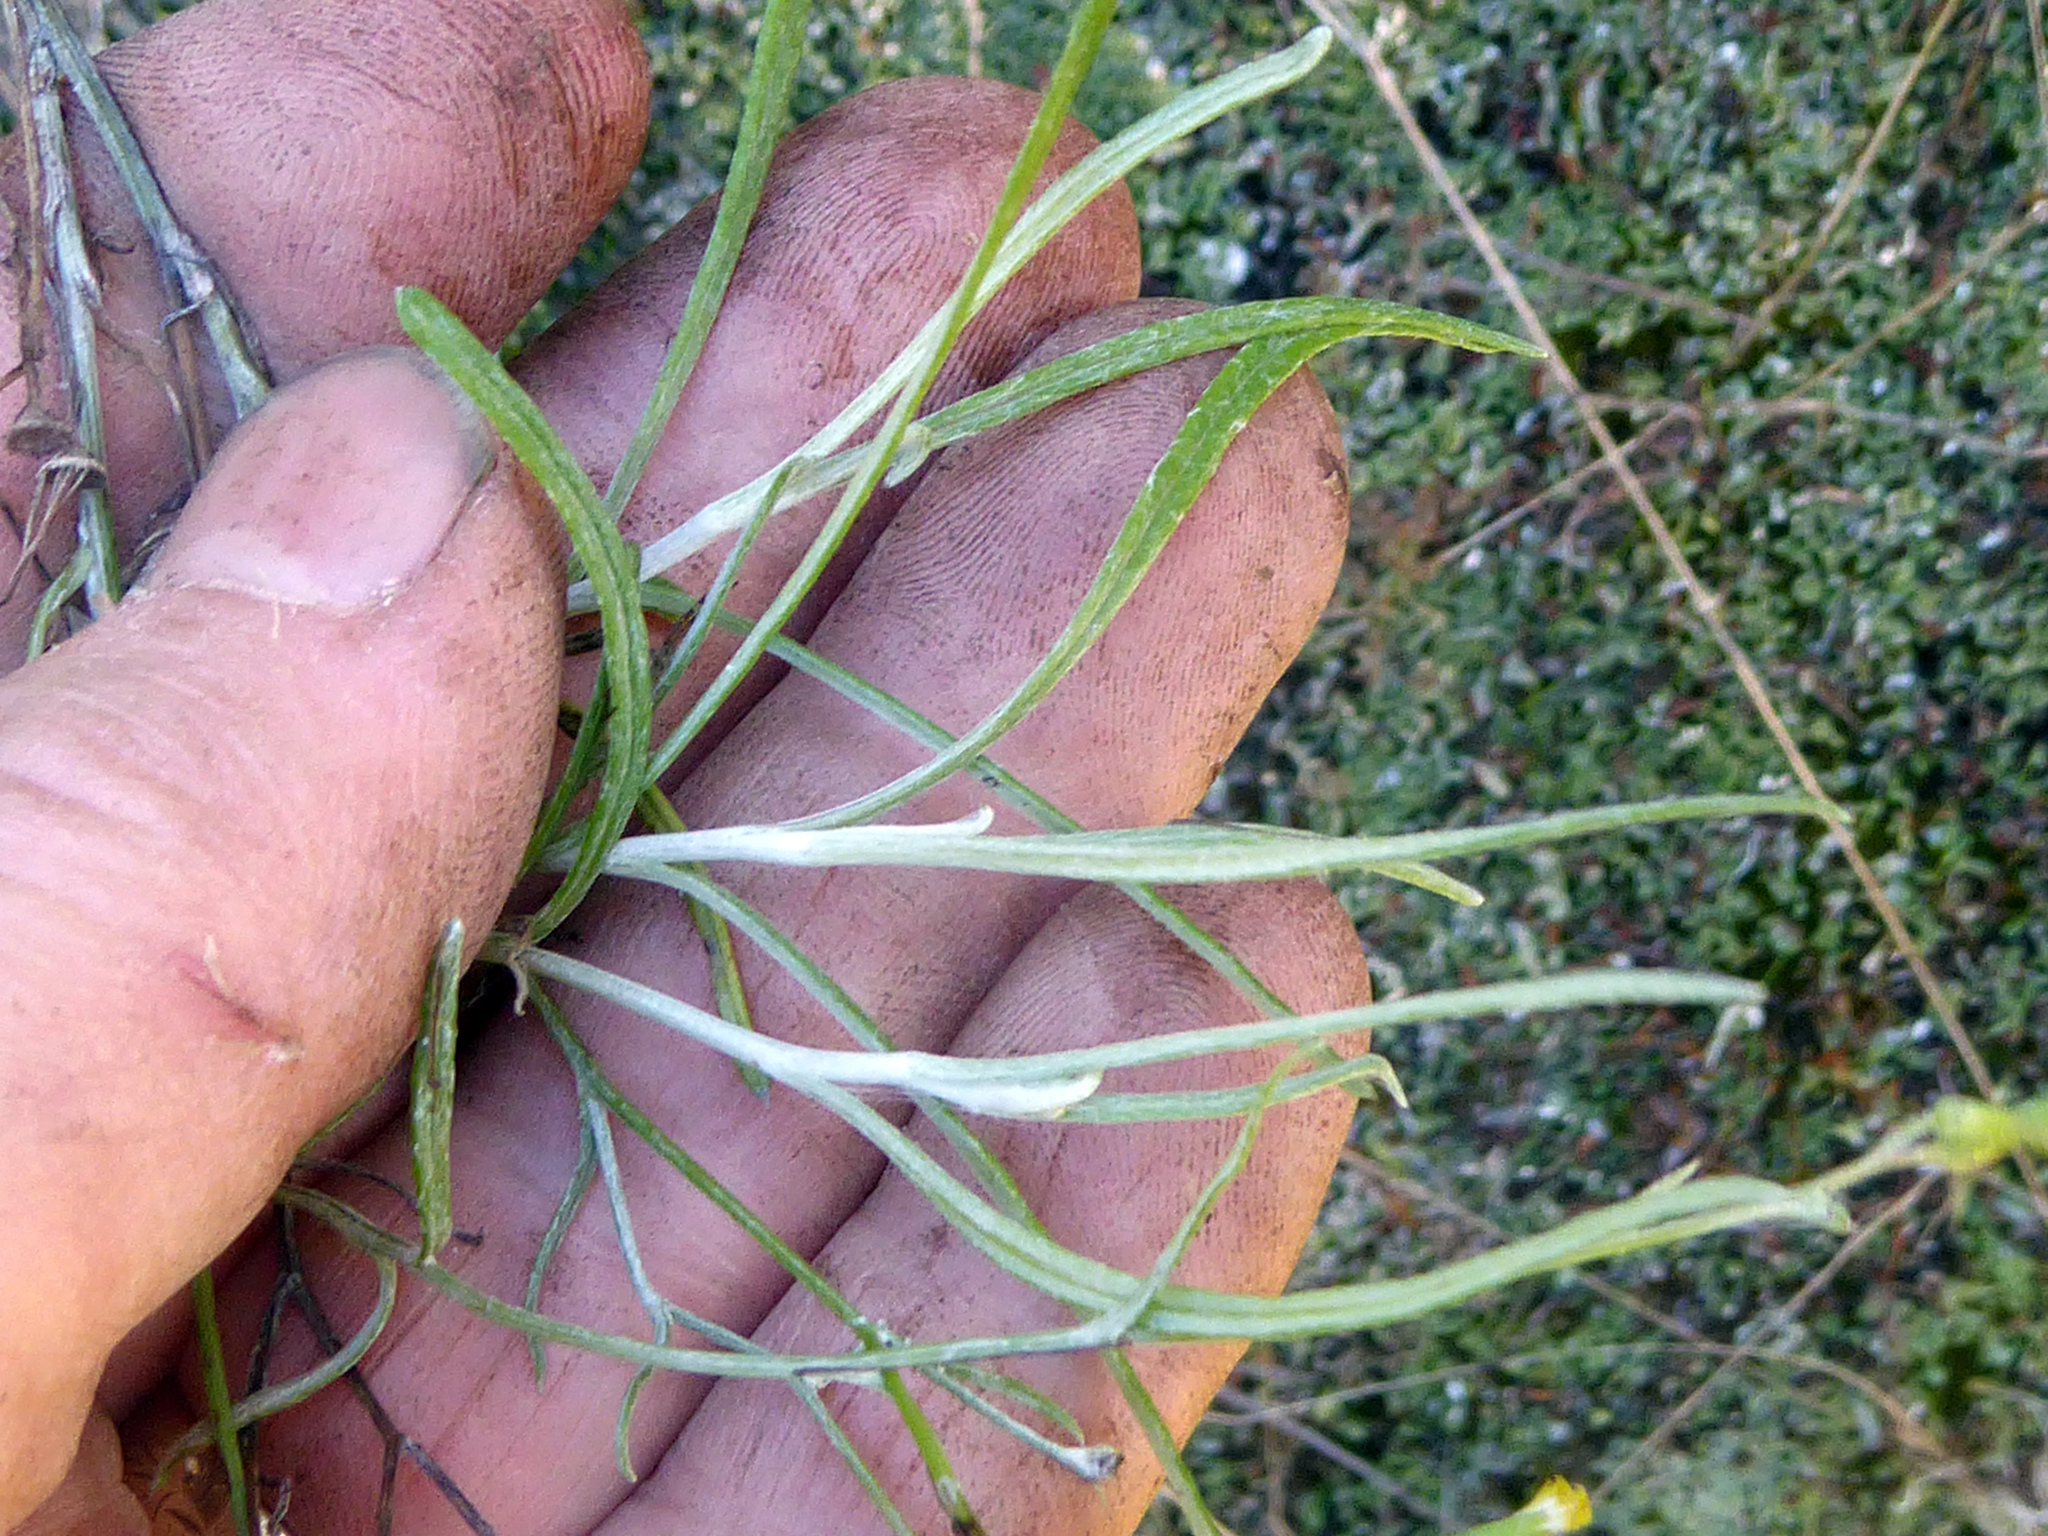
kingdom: Plantae
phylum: Tracheophyta
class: Magnoliopsida
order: Asterales
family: Asteraceae
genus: Senecio
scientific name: Senecio quadridentatus
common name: Cotton fireweed
